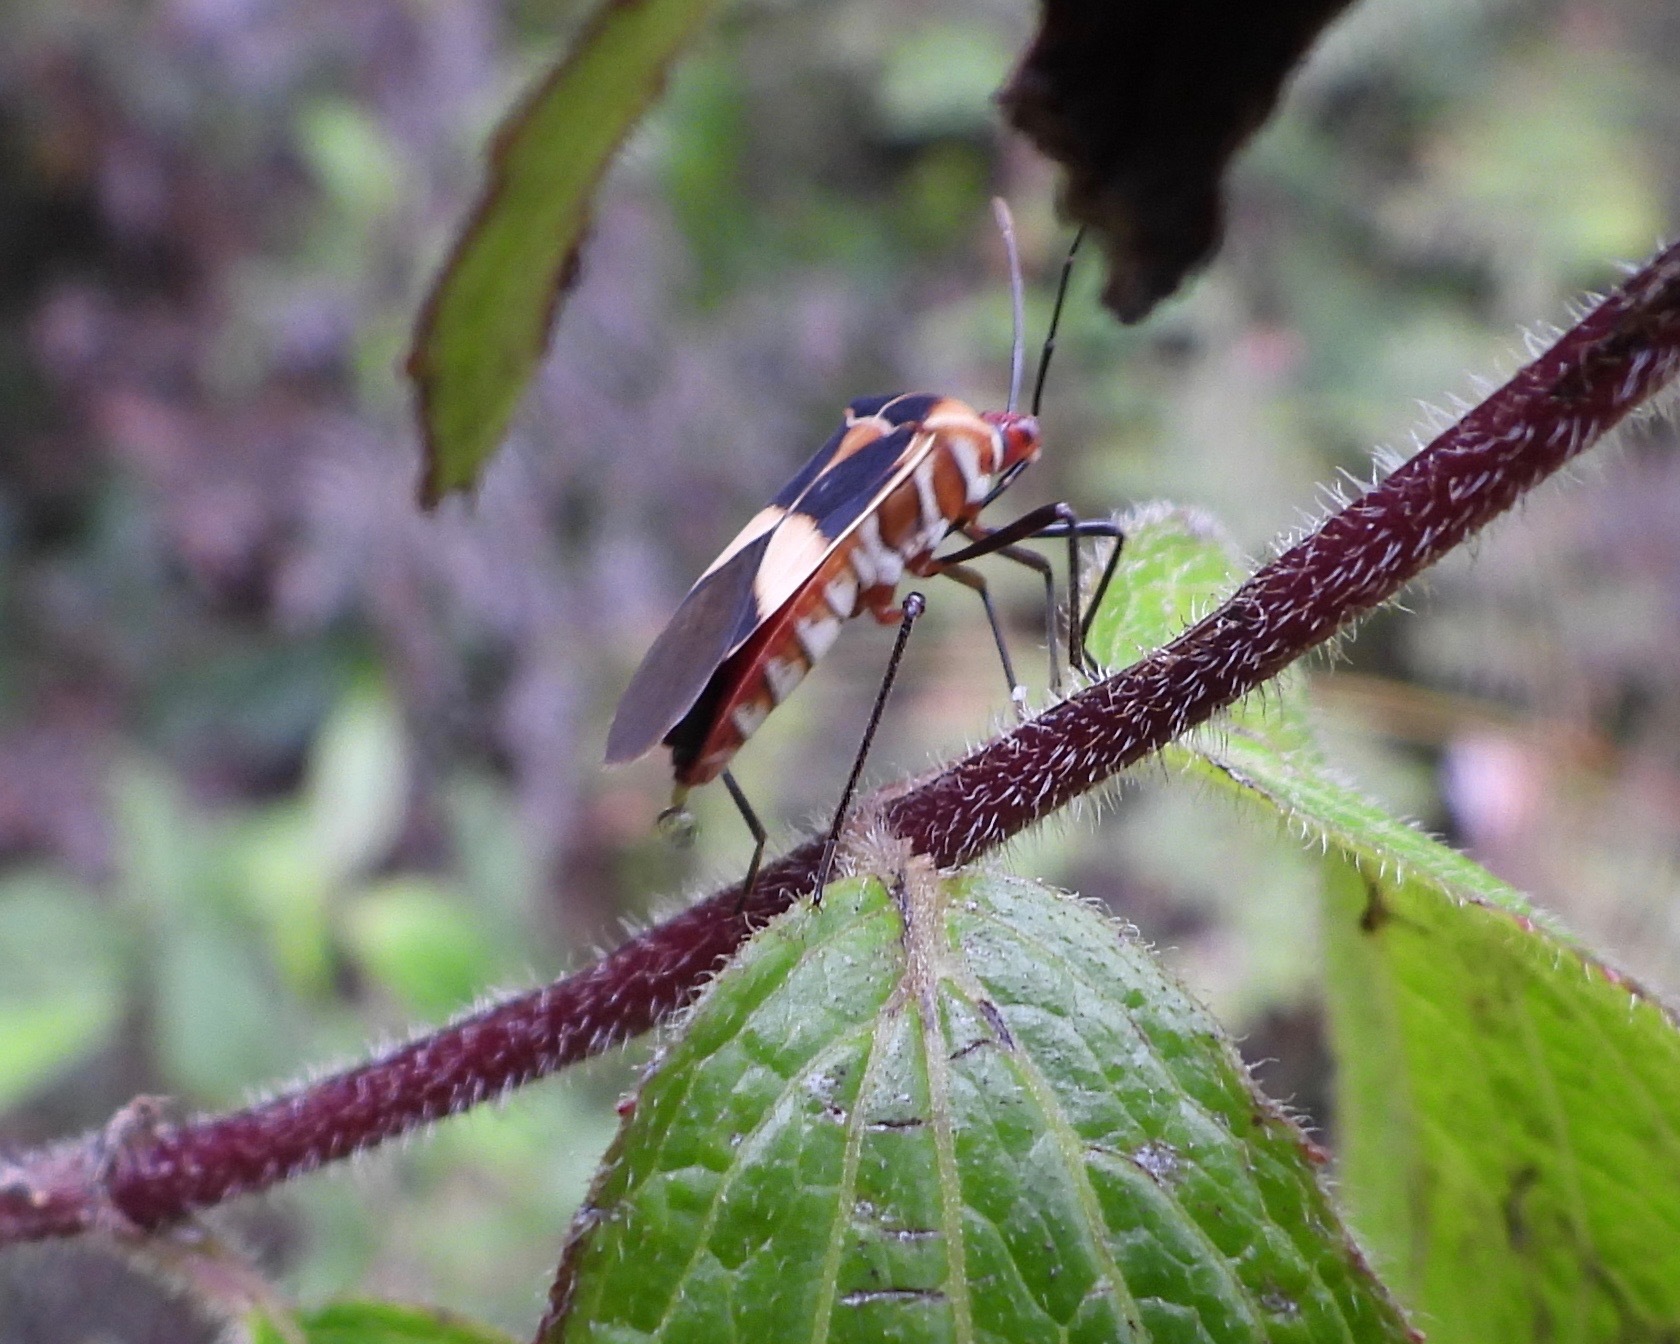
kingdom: Animalia
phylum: Arthropoda
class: Insecta
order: Hemiptera
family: Coreidae
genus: Hypselonotus
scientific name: Hypselonotus interruptus
